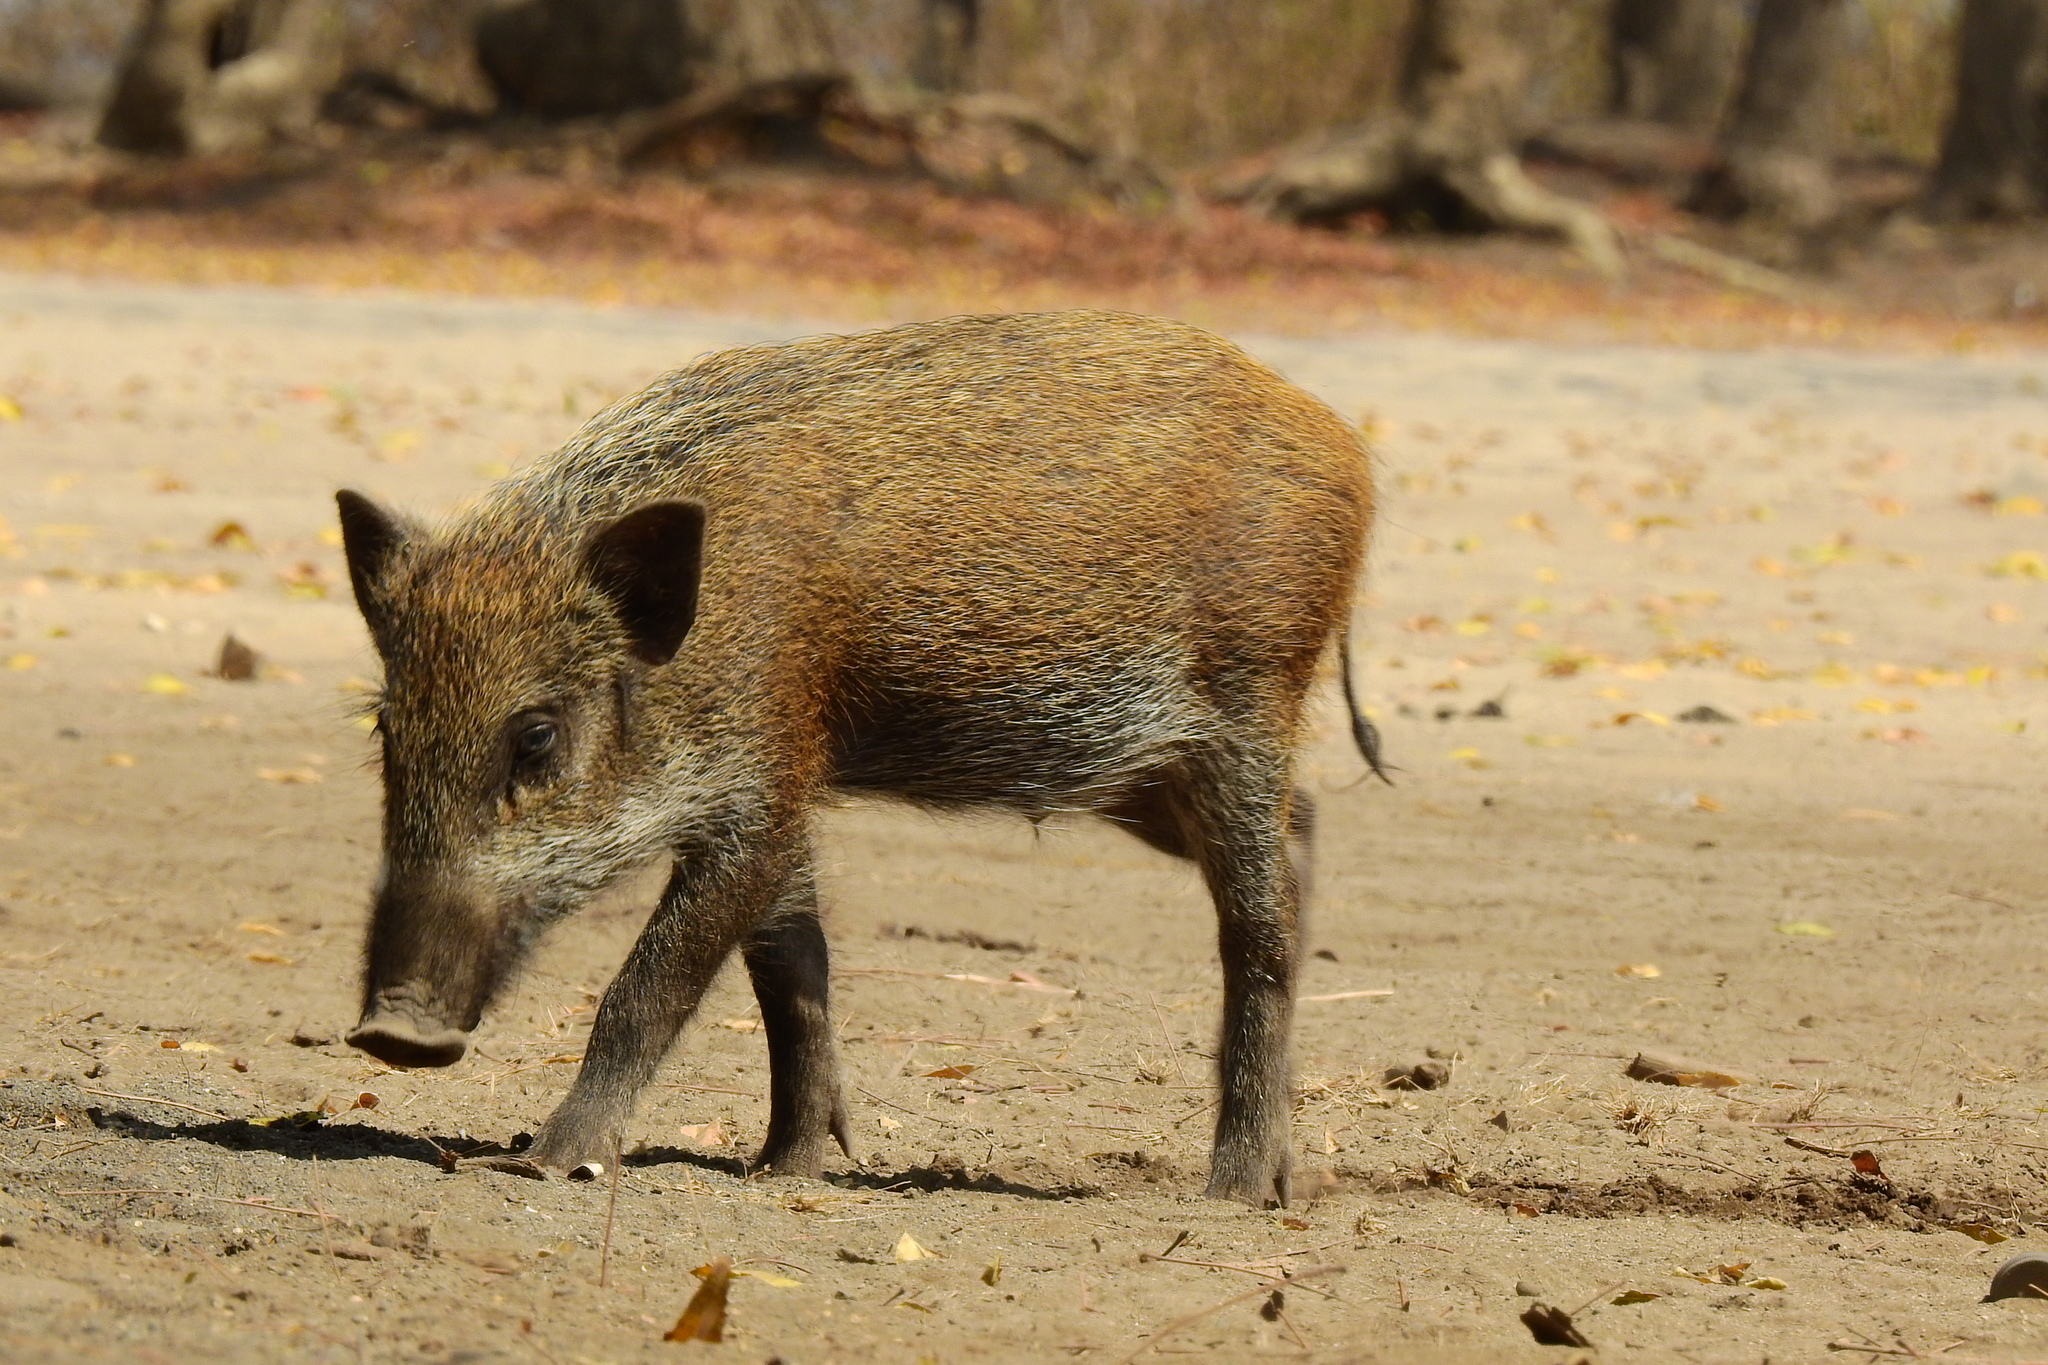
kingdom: Animalia
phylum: Chordata
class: Mammalia
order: Artiodactyla
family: Suidae
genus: Sus
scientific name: Sus scrofa
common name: Wild boar
